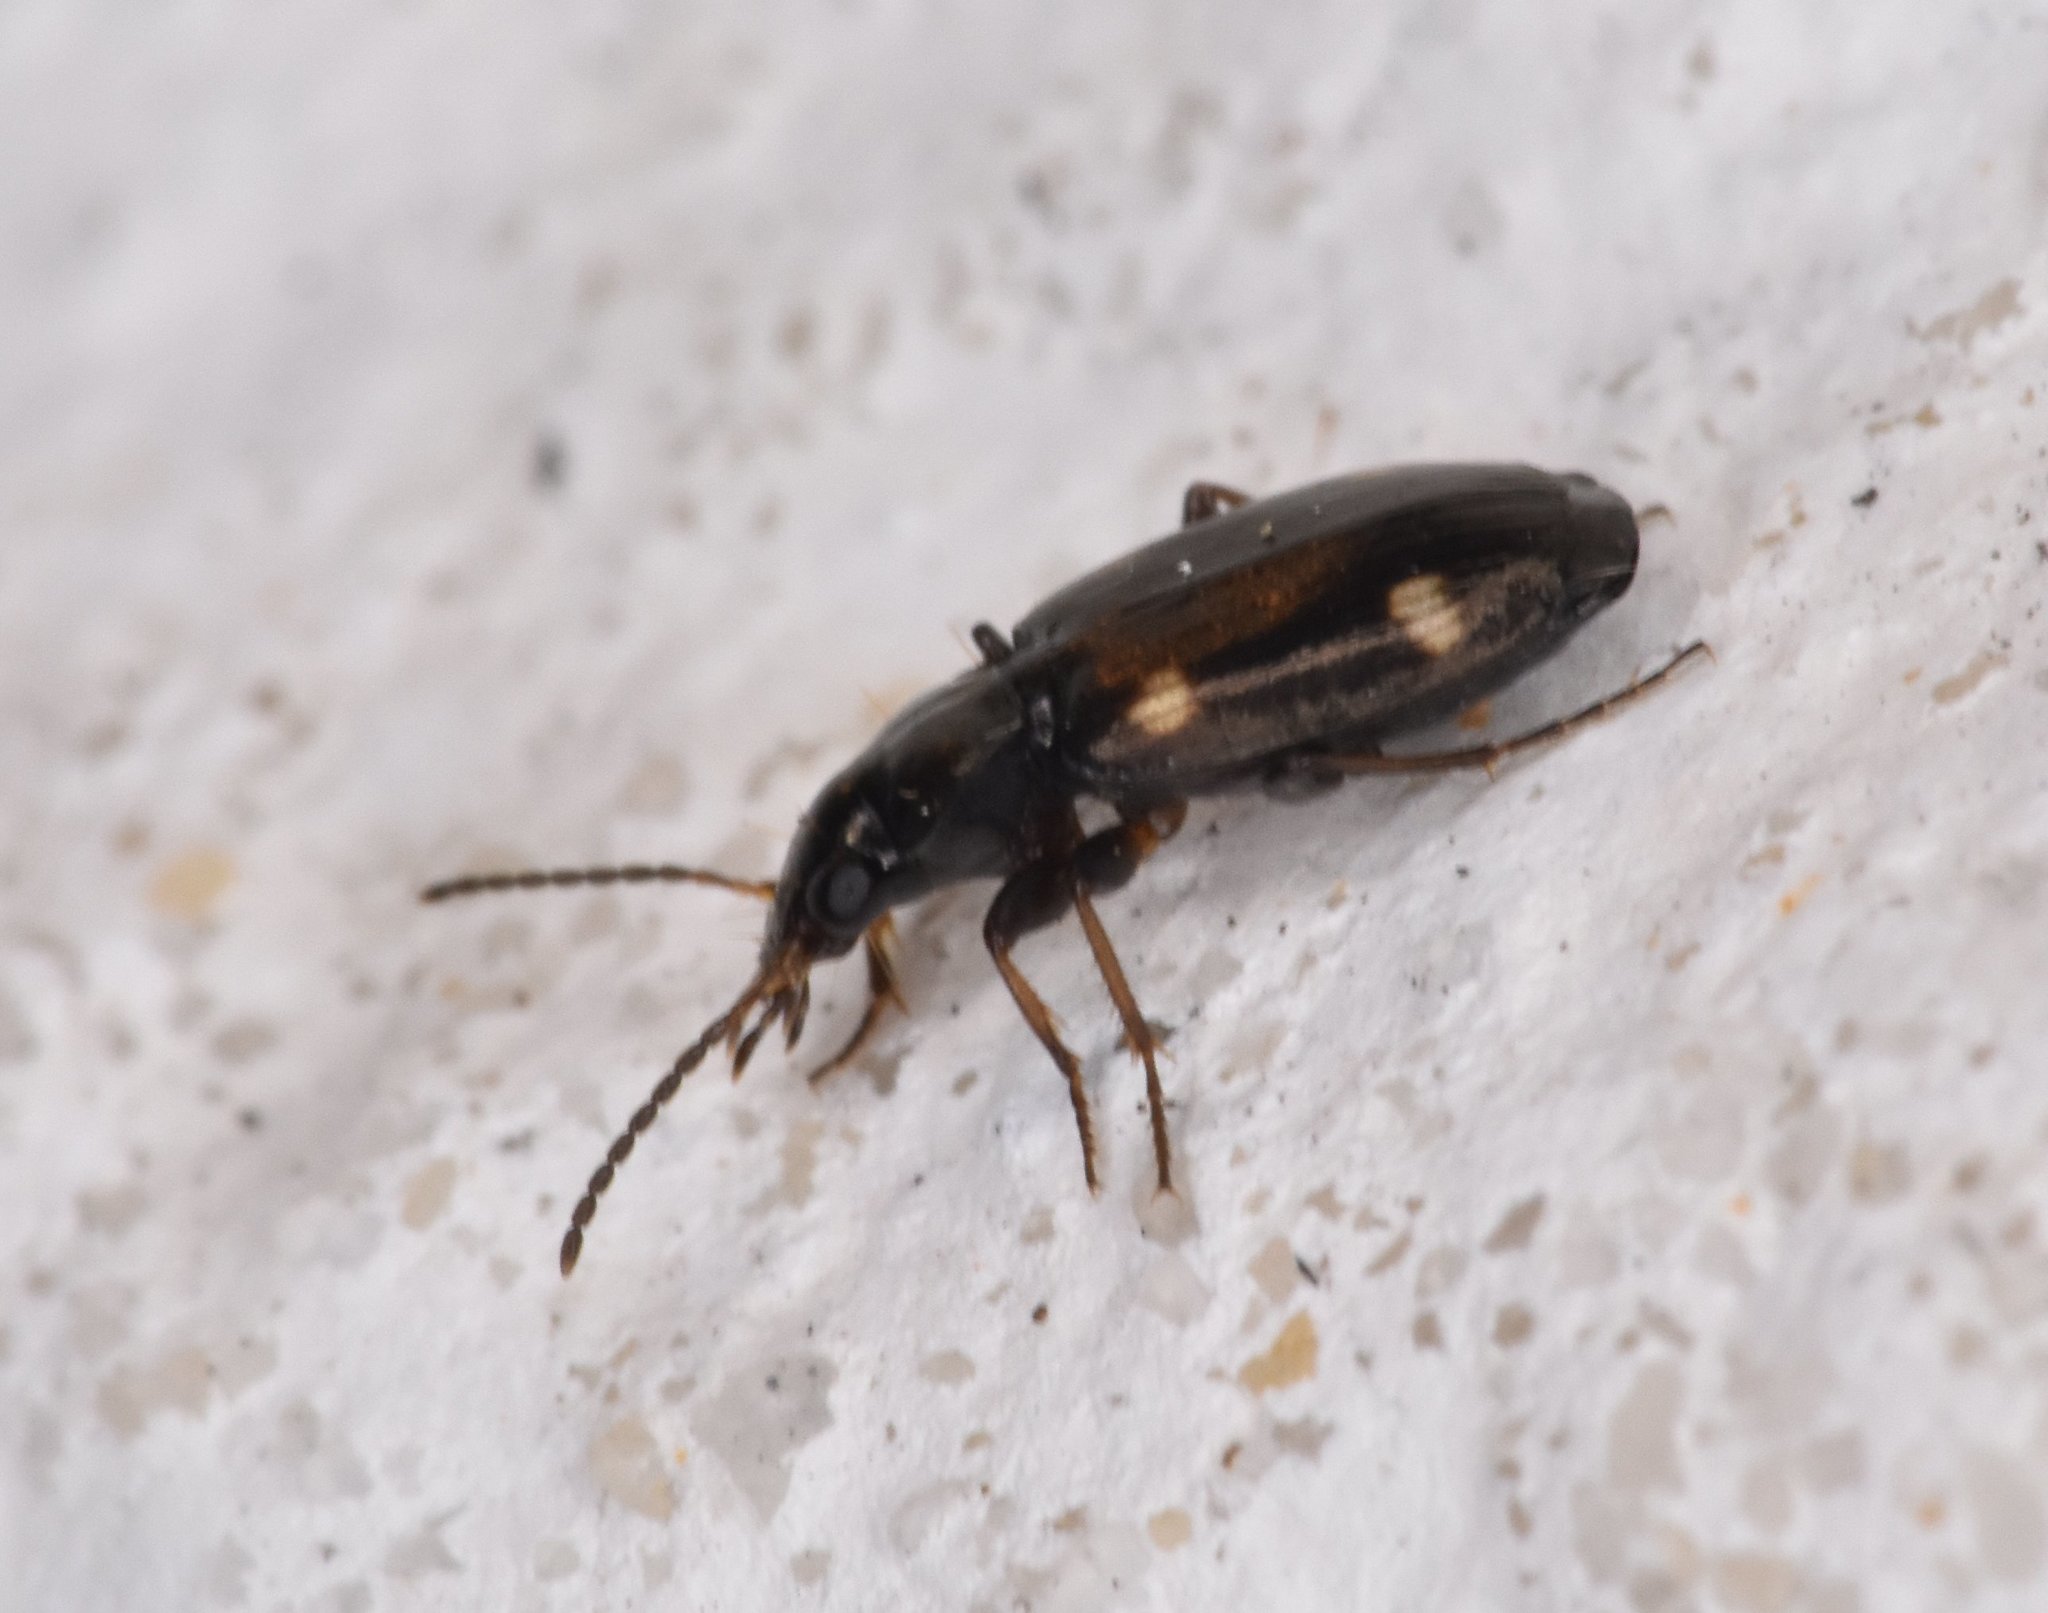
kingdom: Animalia
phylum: Arthropoda
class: Insecta
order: Coleoptera
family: Carabidae
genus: Tetragonoderus
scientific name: Tetragonoderus laevigatus
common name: Ground beetle
